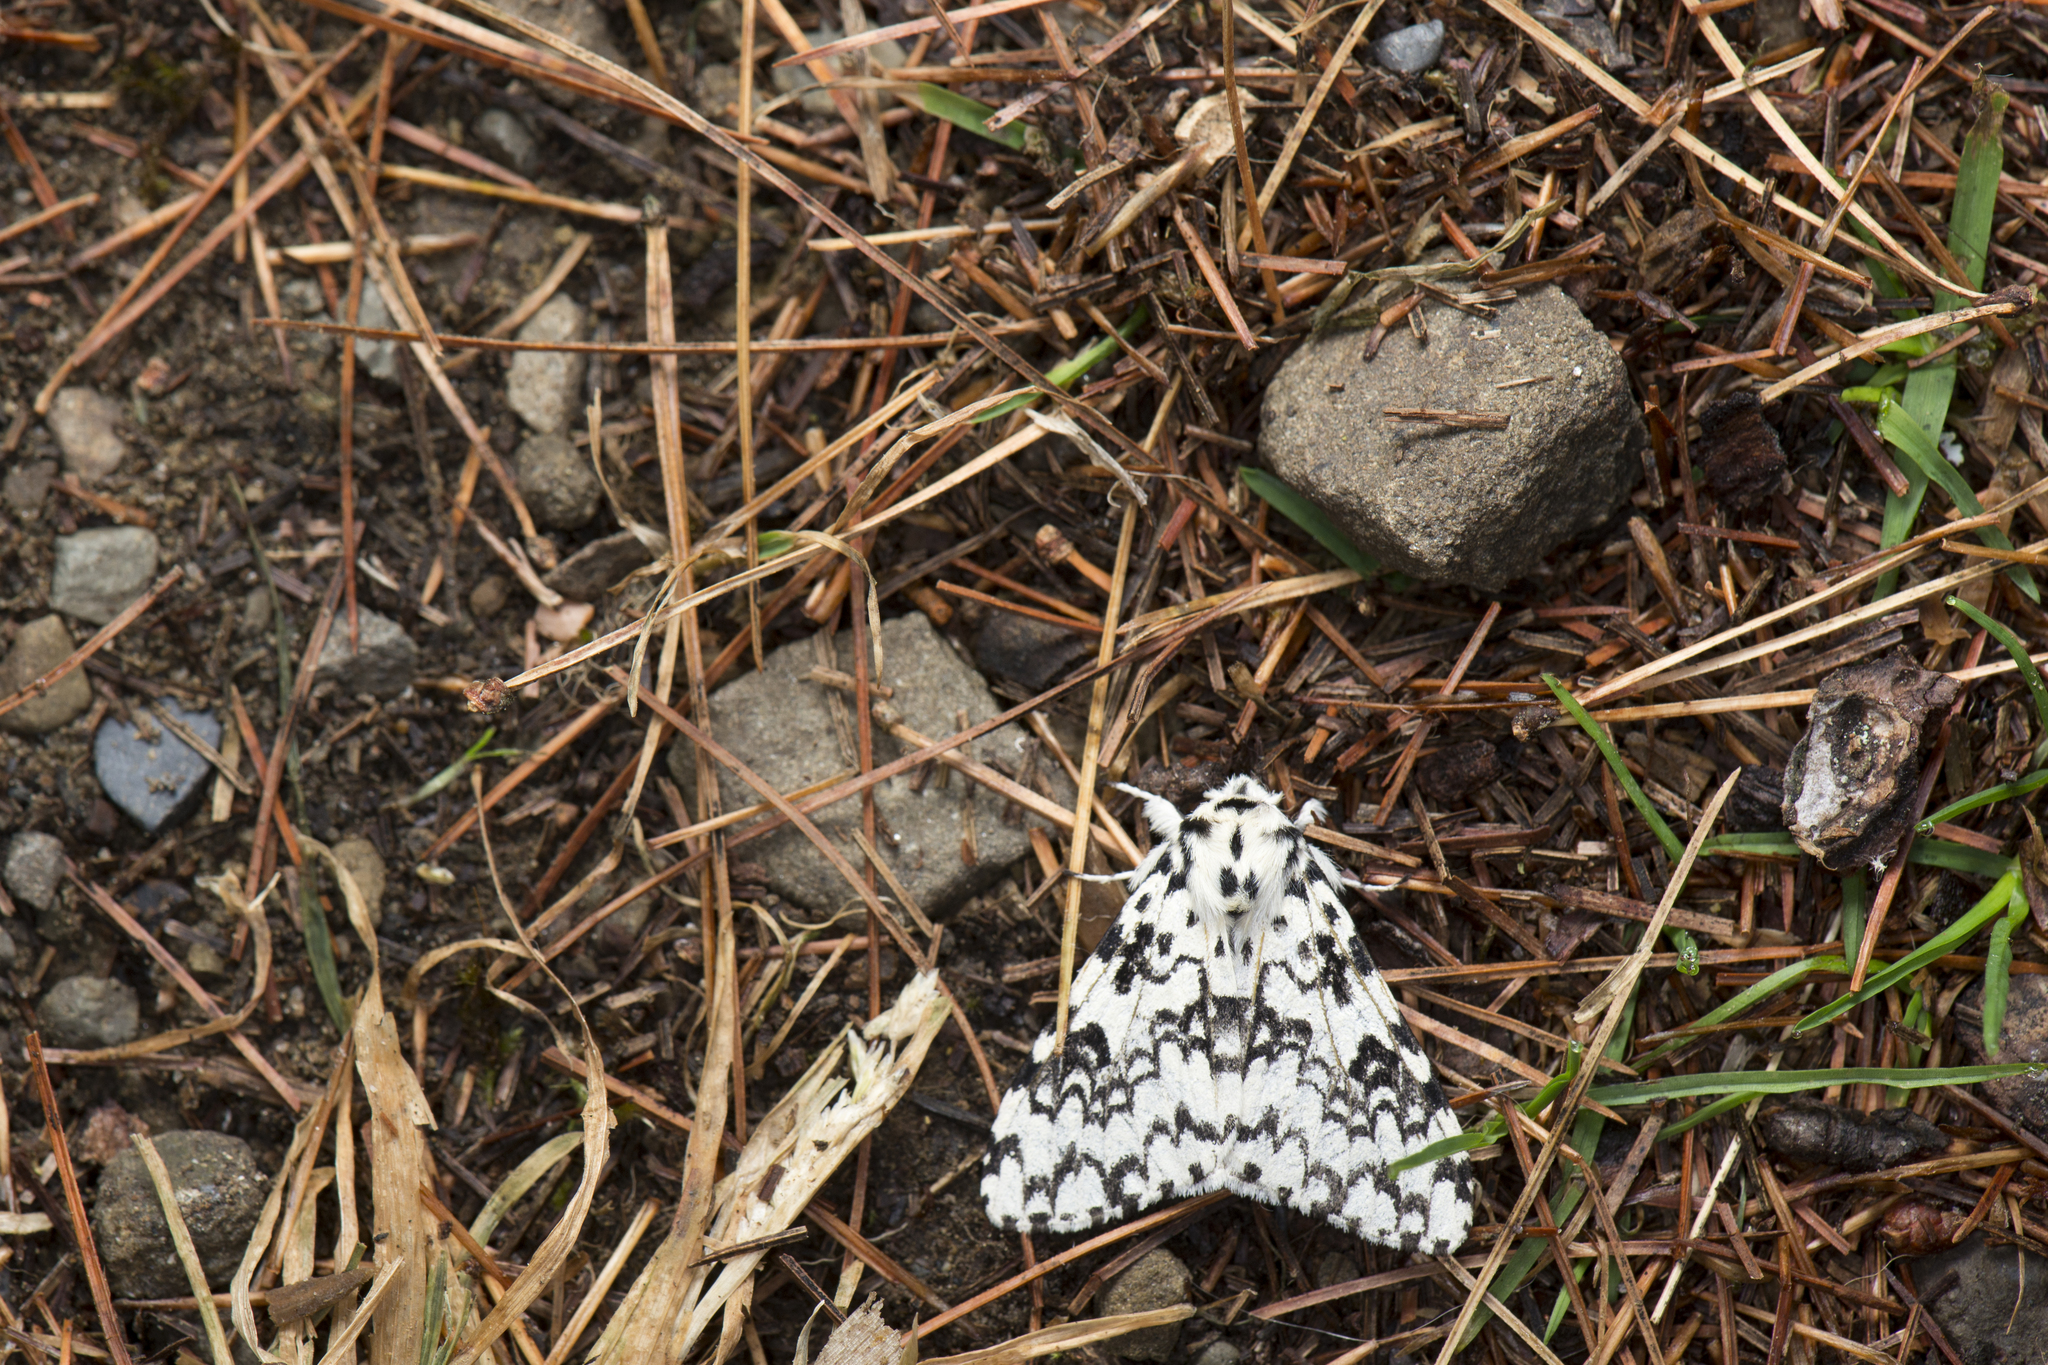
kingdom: Animalia
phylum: Arthropoda
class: Insecta
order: Lepidoptera
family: Erebidae
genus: Lymantria
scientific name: Lymantria concolor
